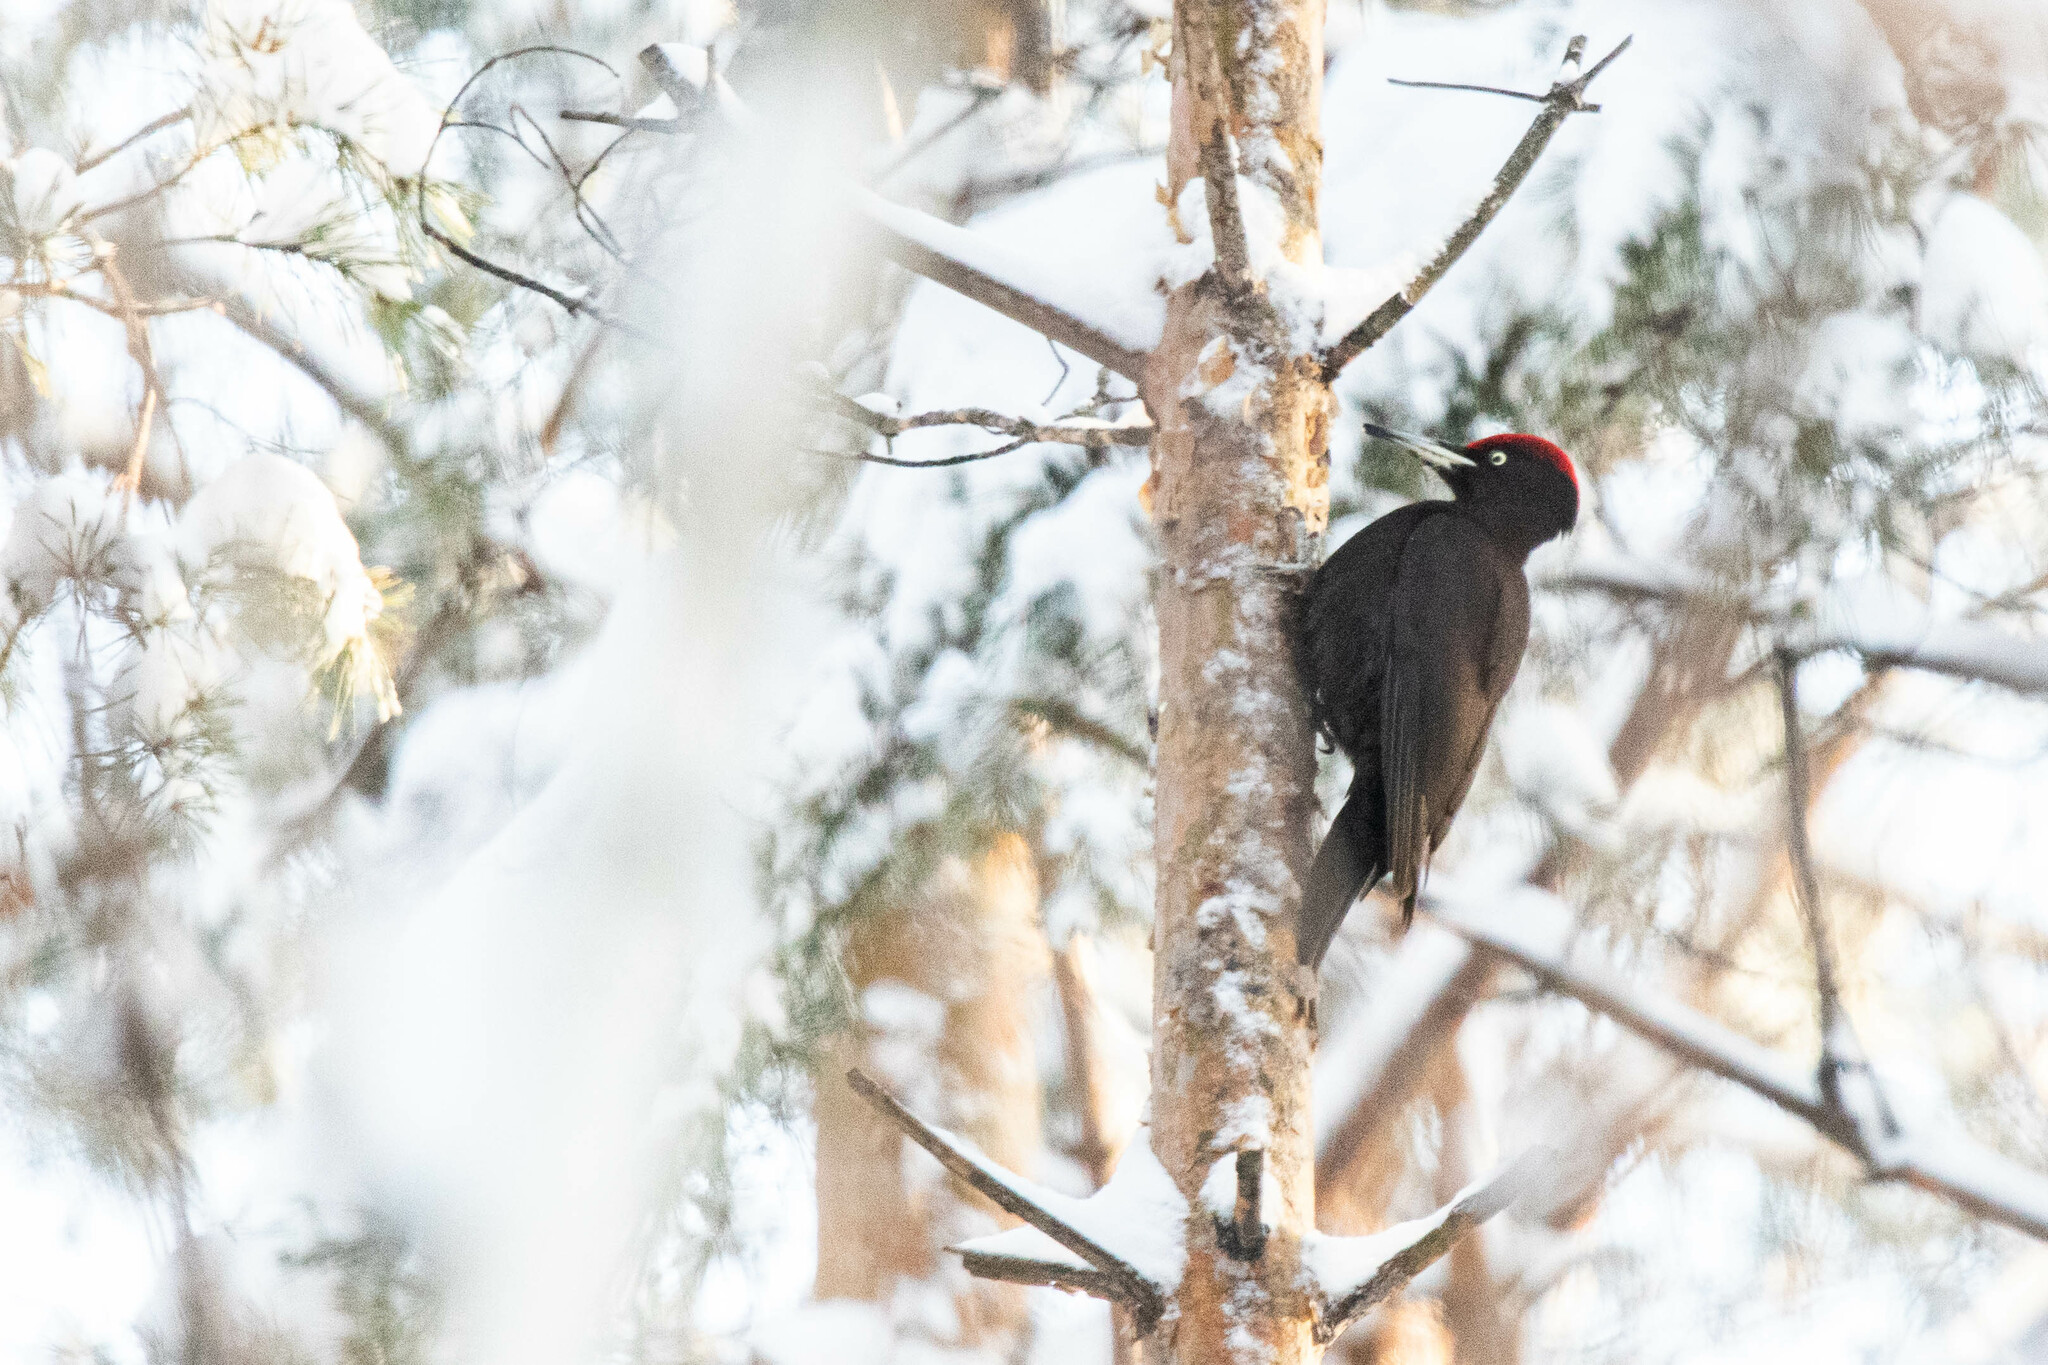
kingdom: Animalia
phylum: Chordata
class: Aves
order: Piciformes
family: Picidae
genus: Dryocopus
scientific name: Dryocopus martius
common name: Black woodpecker
